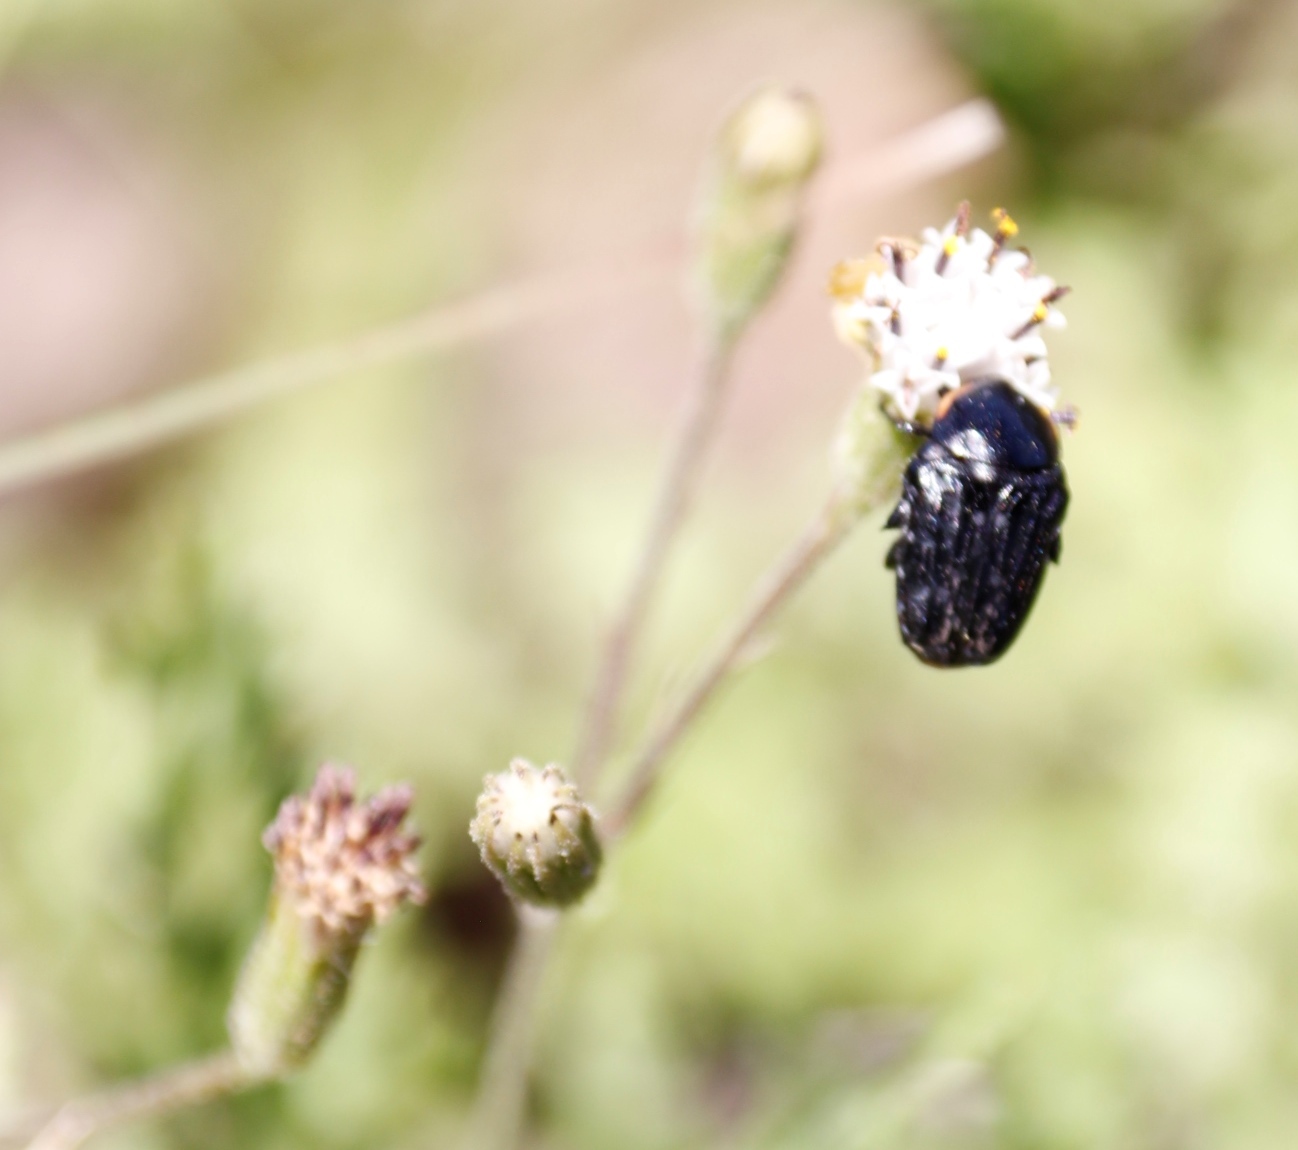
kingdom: Animalia
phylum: Arthropoda
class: Insecta
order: Coleoptera
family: Scarabaeidae
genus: Oxythyrea
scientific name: Oxythyrea
